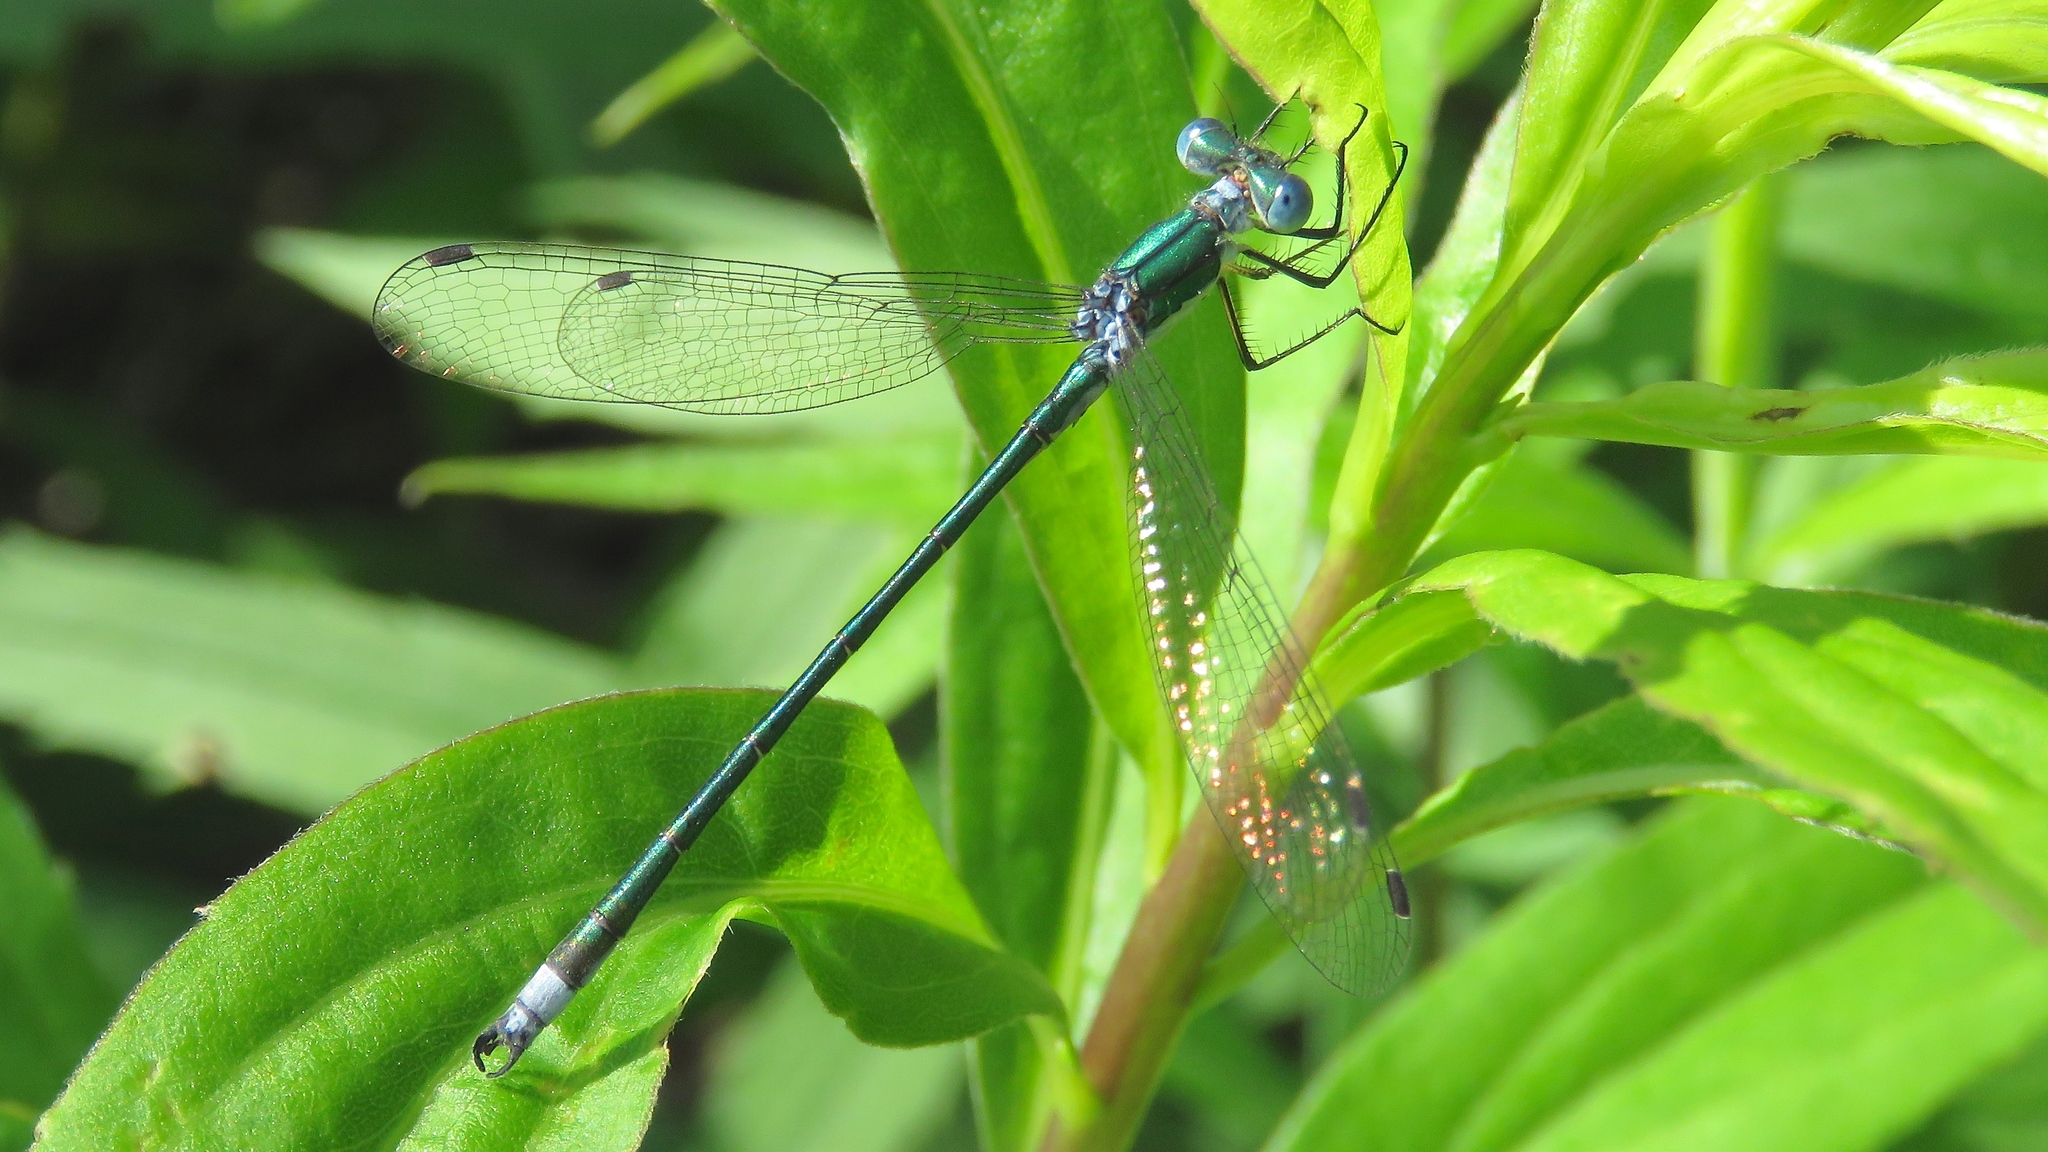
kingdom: Animalia
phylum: Arthropoda
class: Insecta
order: Odonata
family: Lestidae
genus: Lestes
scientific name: Lestes dryas
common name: Scarce emerald damselfly
